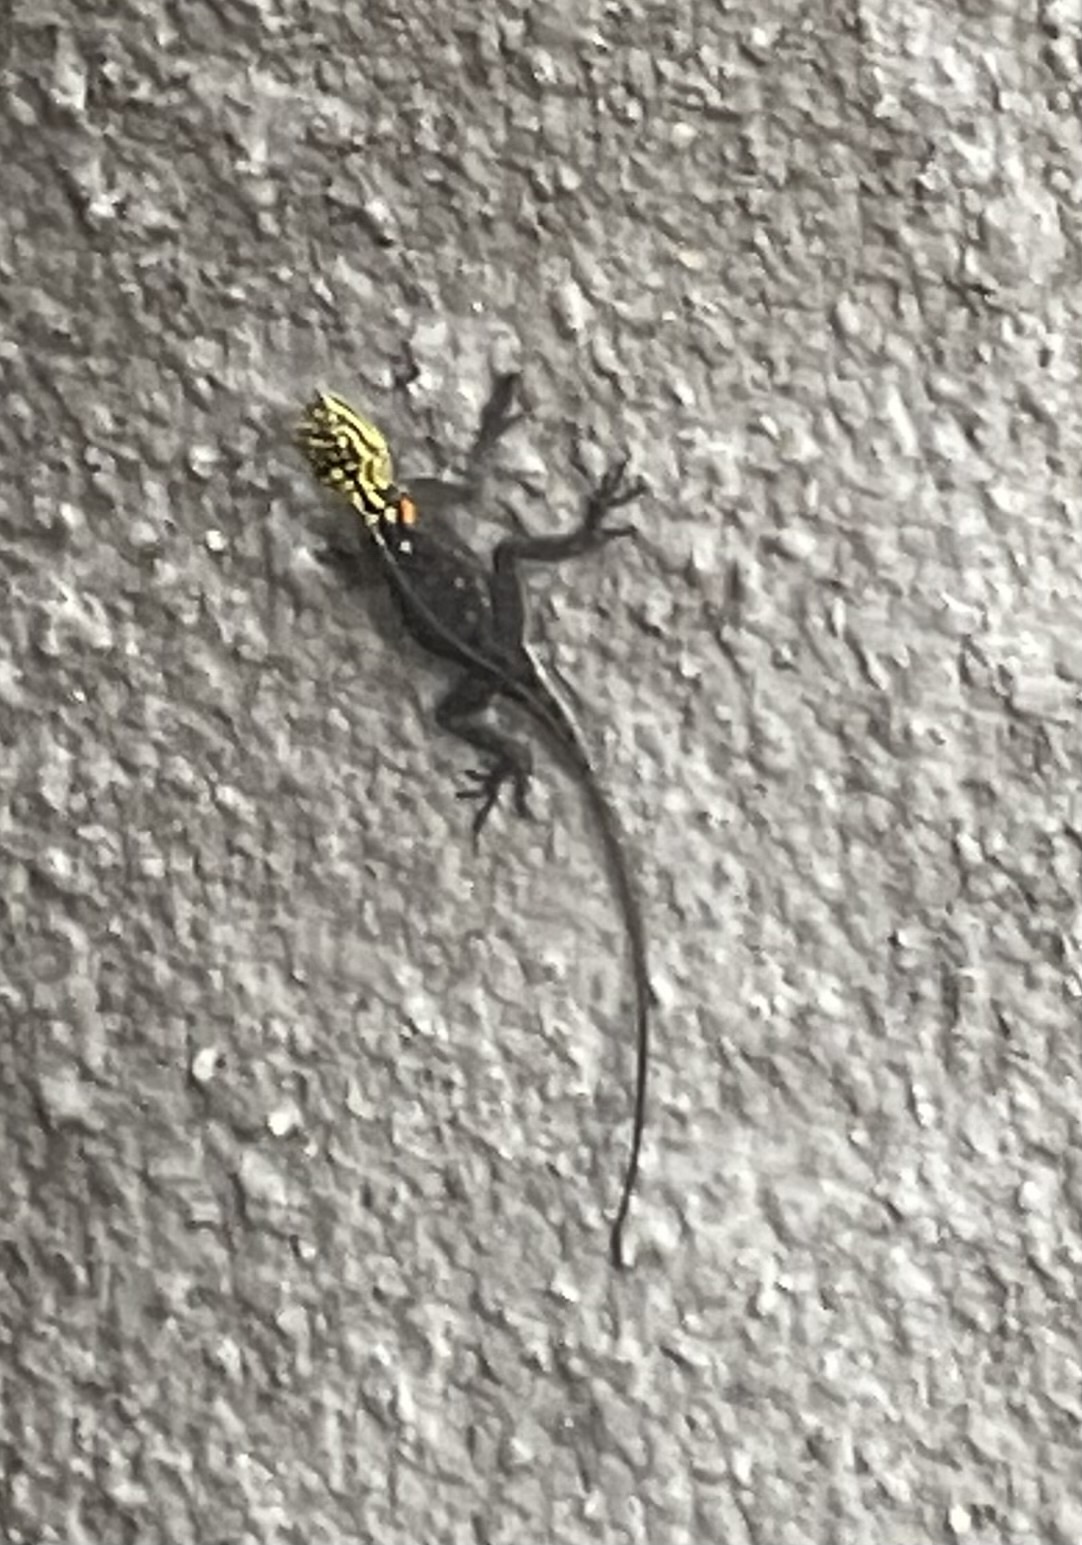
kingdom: Animalia
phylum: Chordata
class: Squamata
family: Agamidae
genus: Agama
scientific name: Agama planiceps
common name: Namib rock agama
